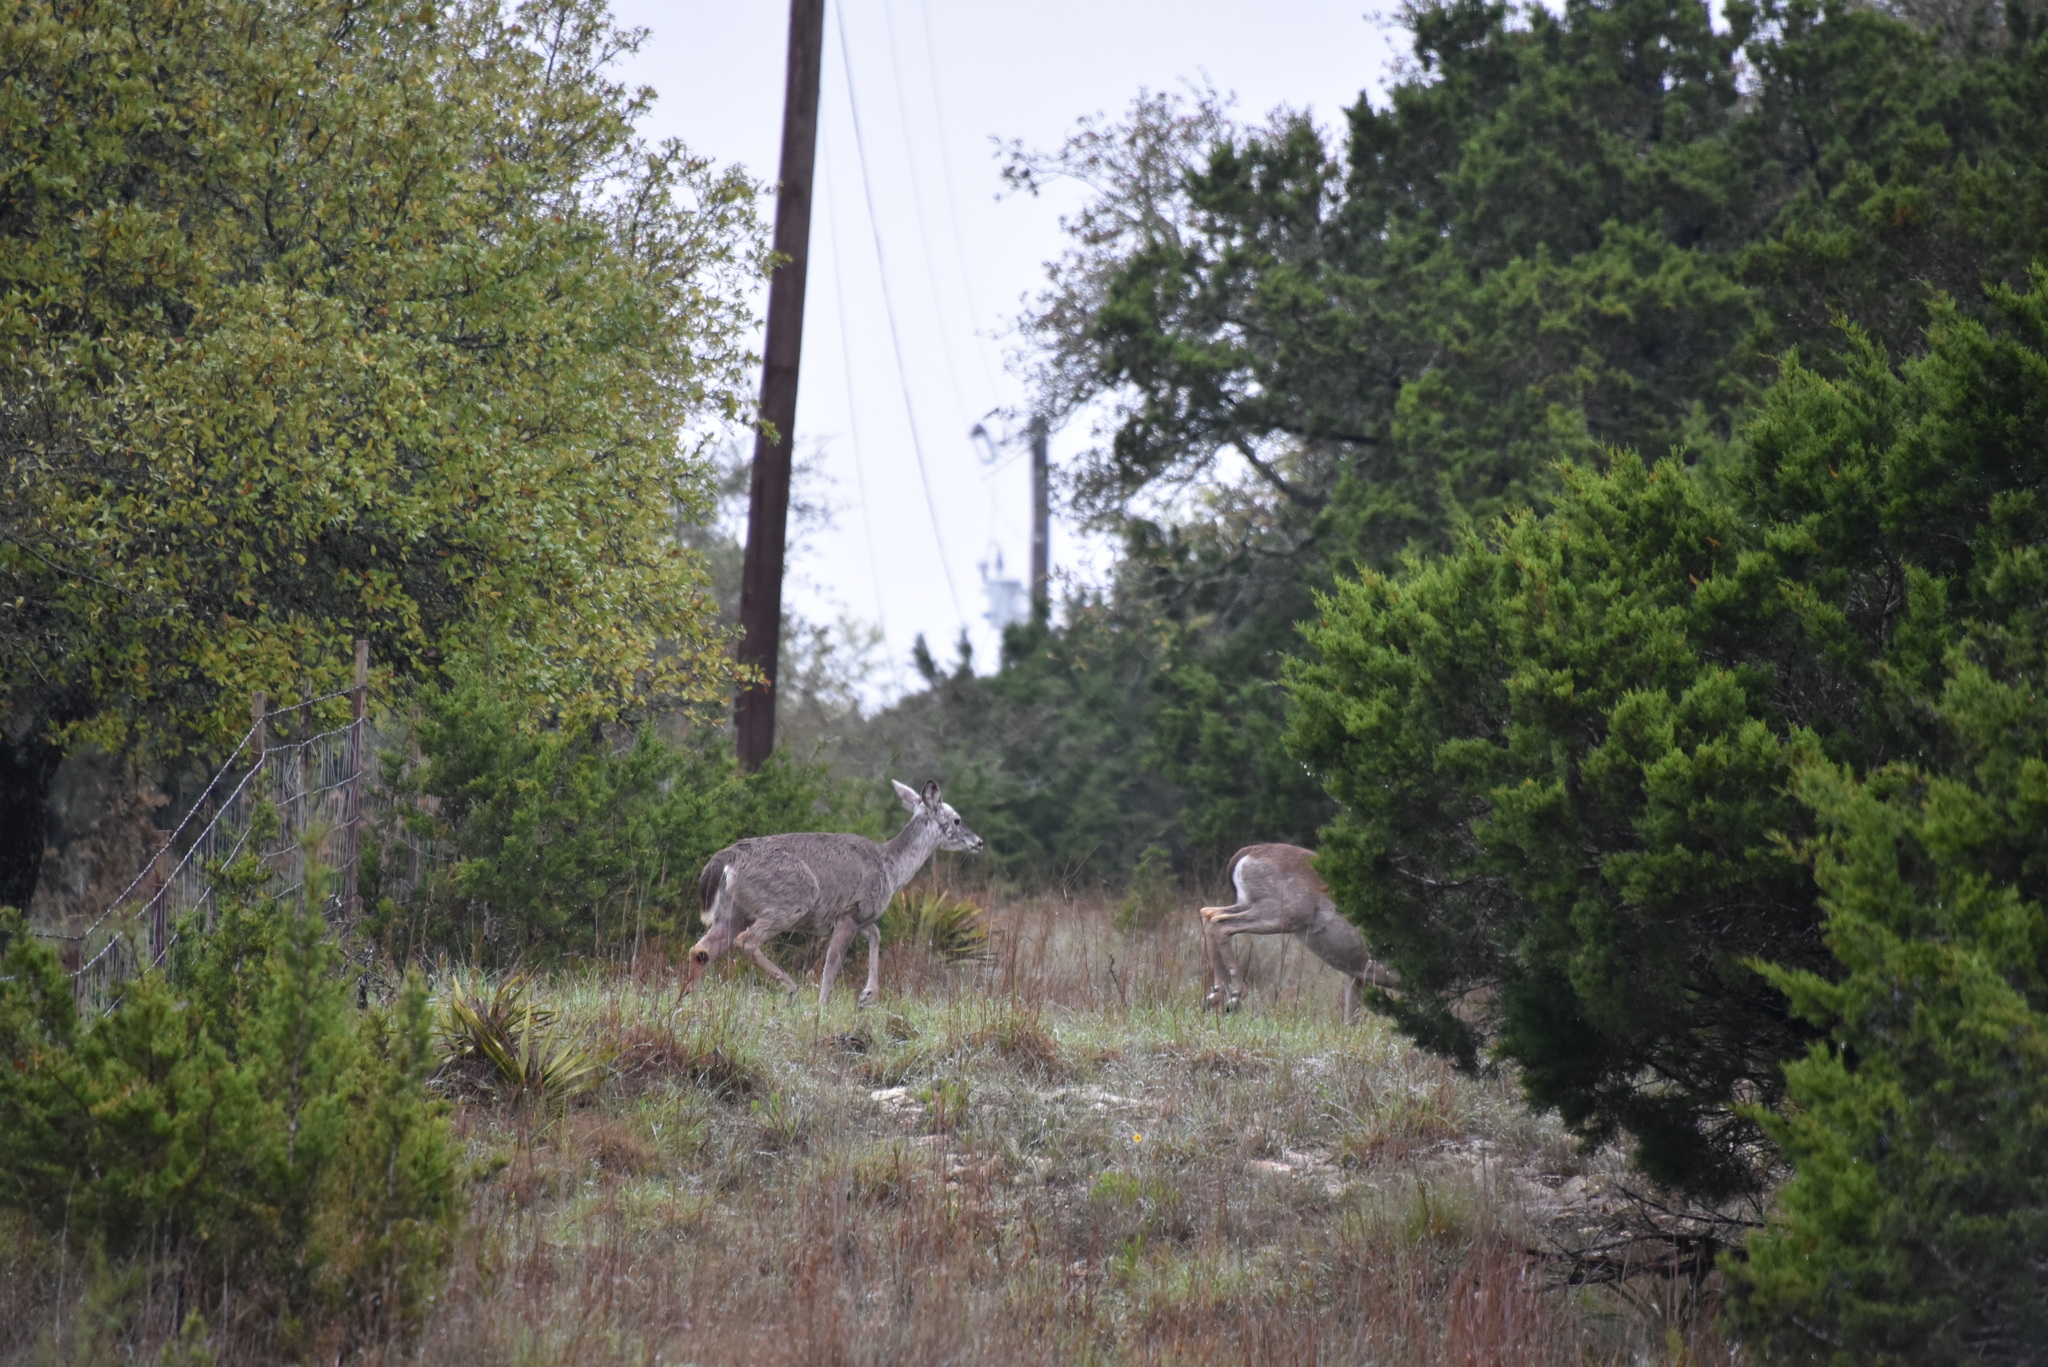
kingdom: Animalia
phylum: Chordata
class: Mammalia
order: Artiodactyla
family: Cervidae
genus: Odocoileus
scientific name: Odocoileus virginianus
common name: White-tailed deer
